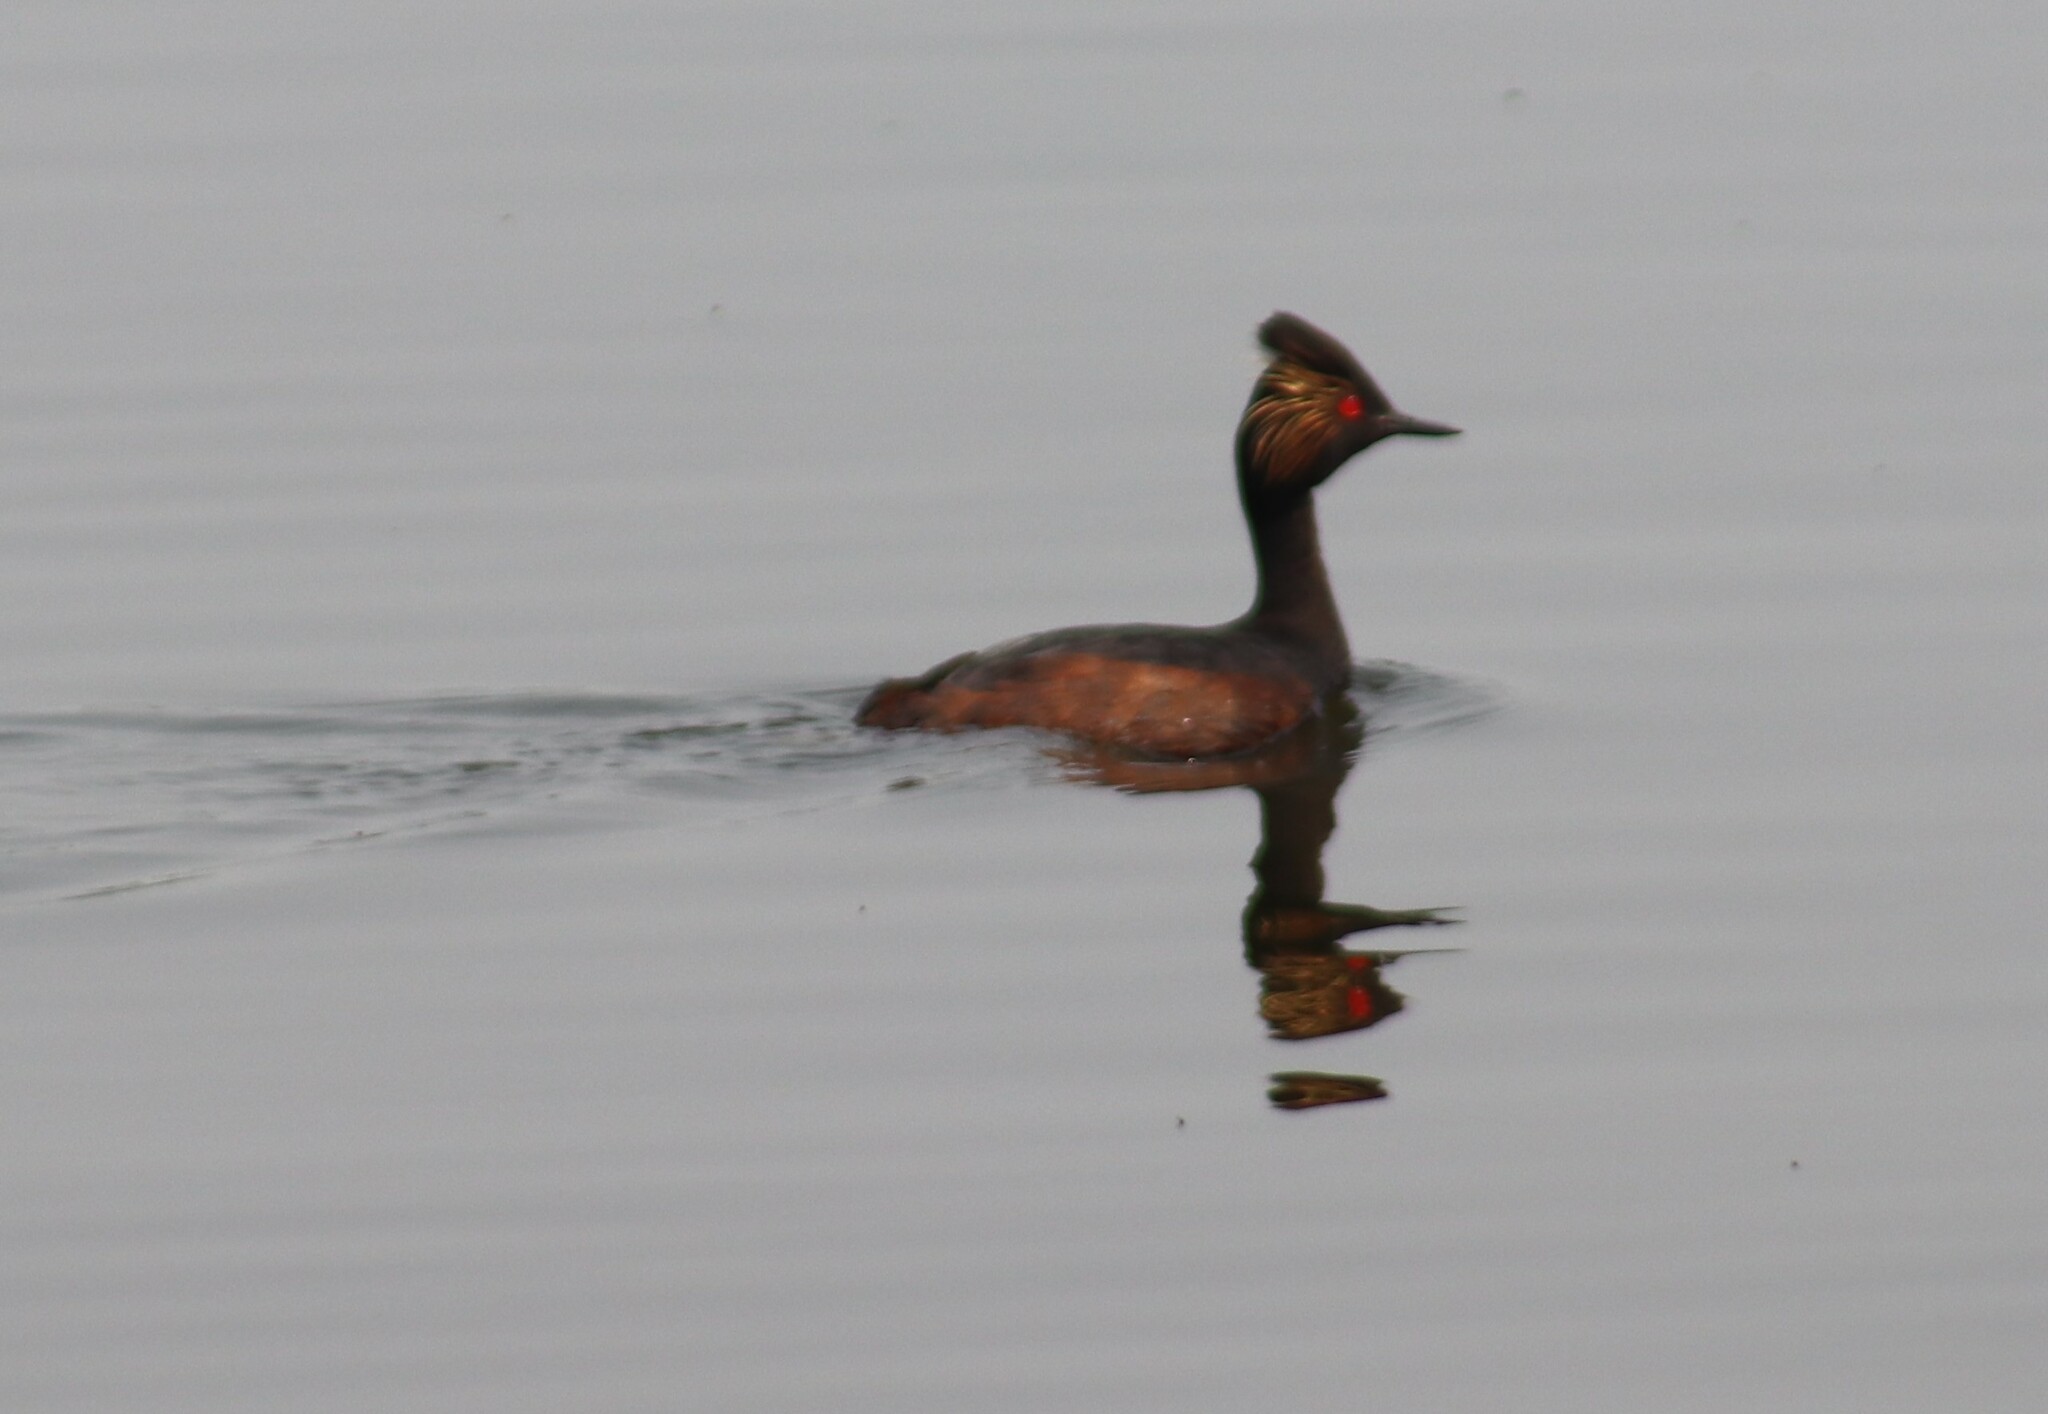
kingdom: Animalia
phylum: Chordata
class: Aves
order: Podicipediformes
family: Podicipedidae
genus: Podiceps
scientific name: Podiceps nigricollis
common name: Black-necked grebe
